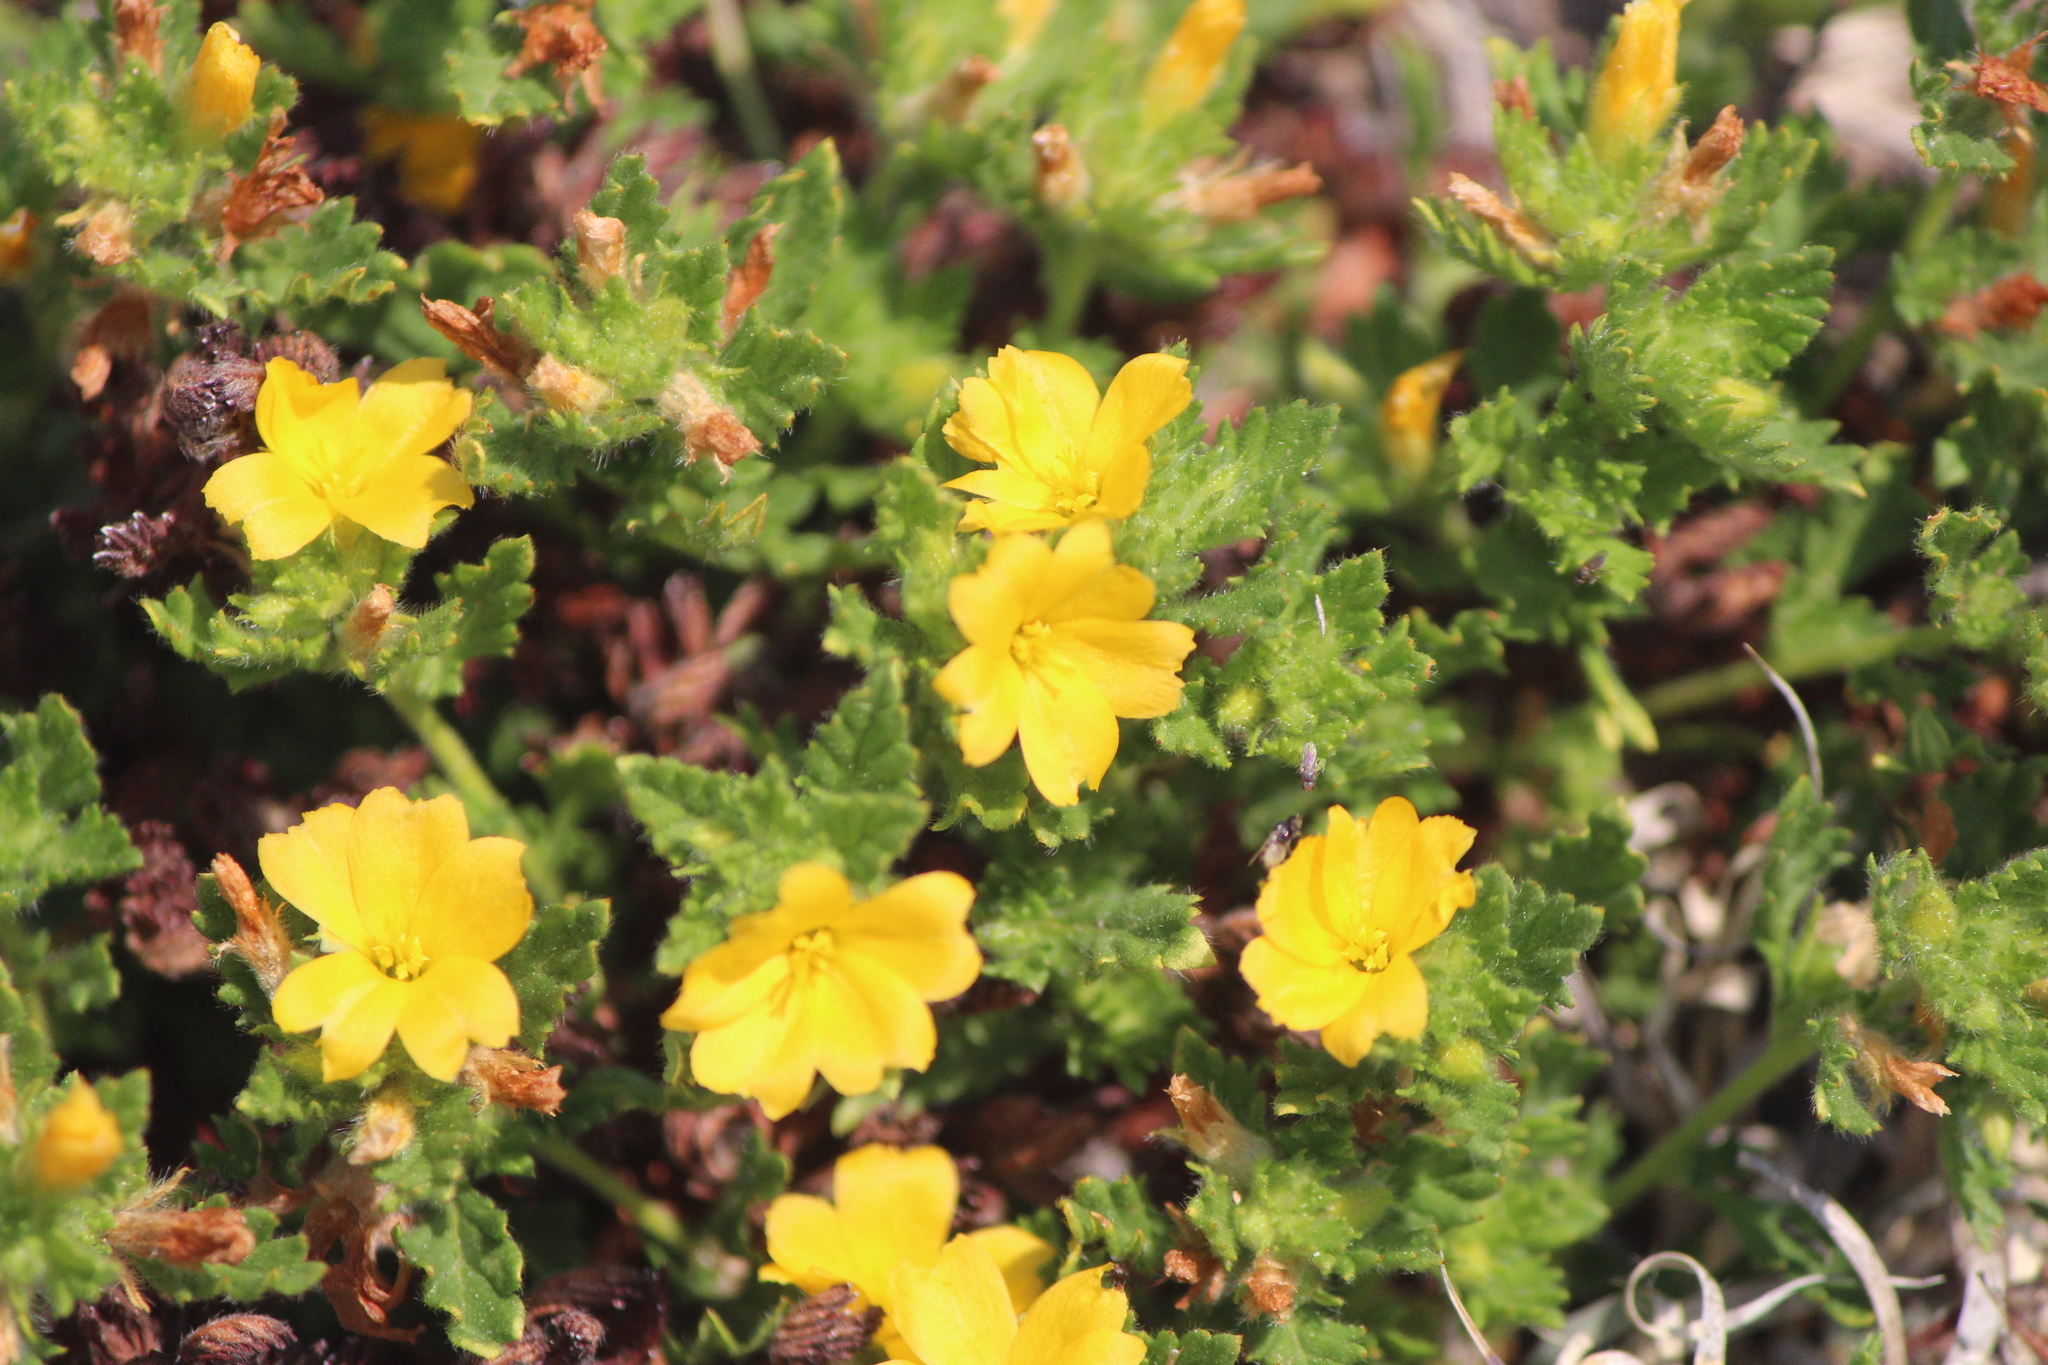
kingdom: Plantae
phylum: Tracheophyta
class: Magnoliopsida
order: Malpighiales
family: Turneraceae
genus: Turnera
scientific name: Turnera diffusa
